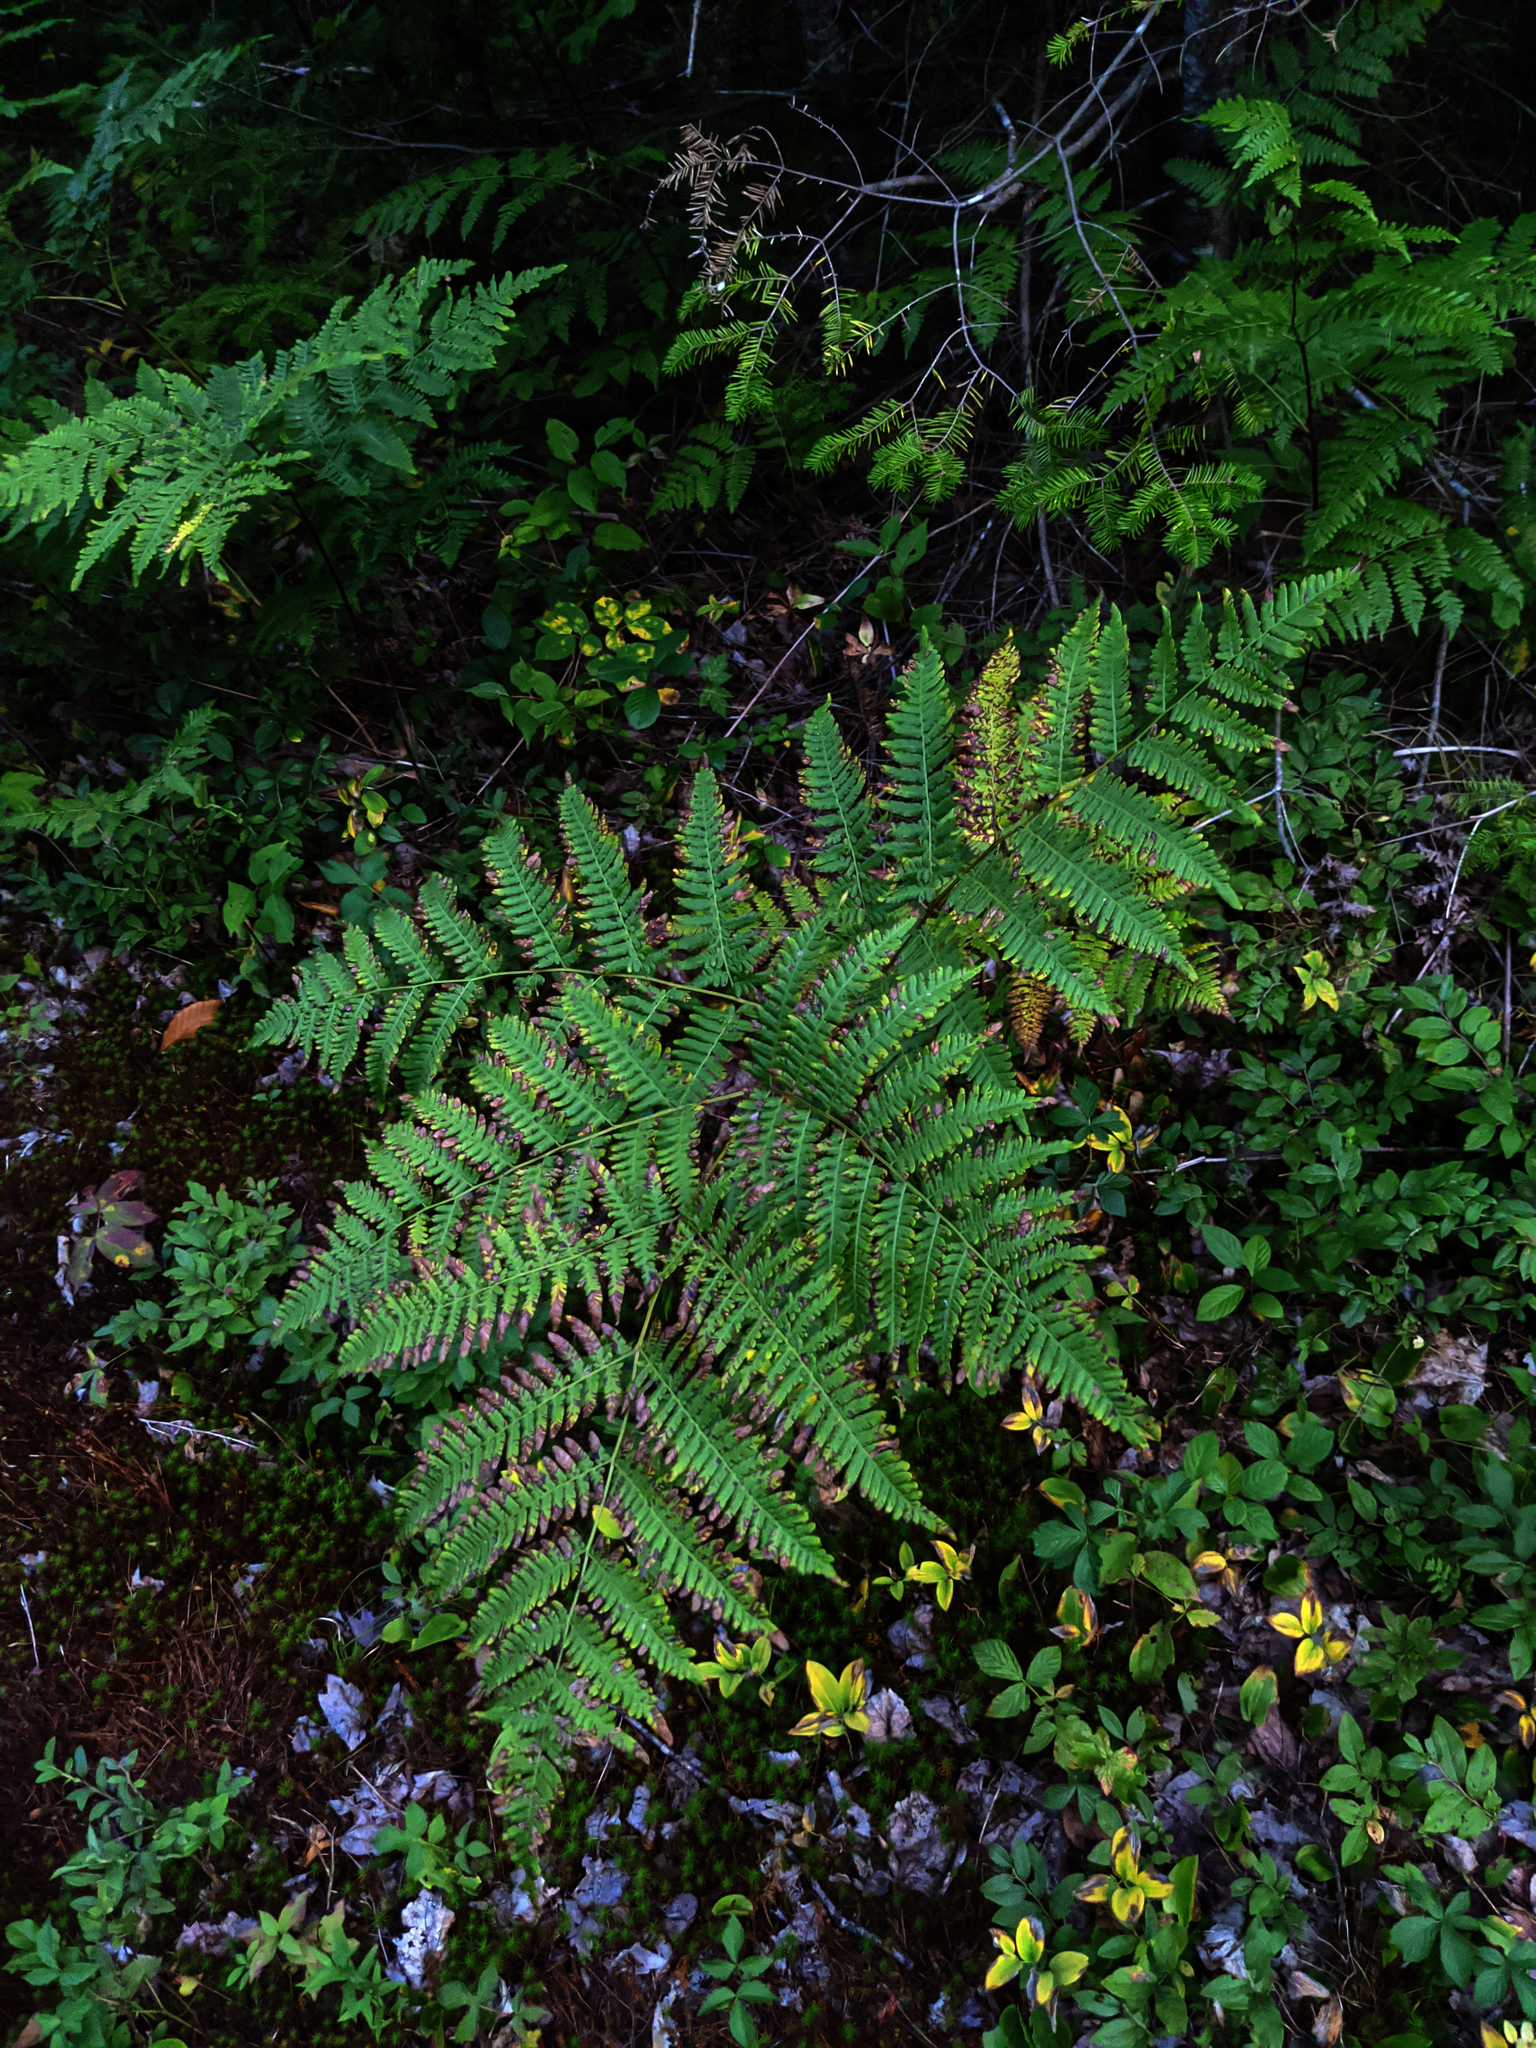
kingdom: Plantae
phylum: Tracheophyta
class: Polypodiopsida
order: Polypodiales
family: Dennstaedtiaceae
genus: Pteridium
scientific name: Pteridium aquilinum
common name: Bracken
